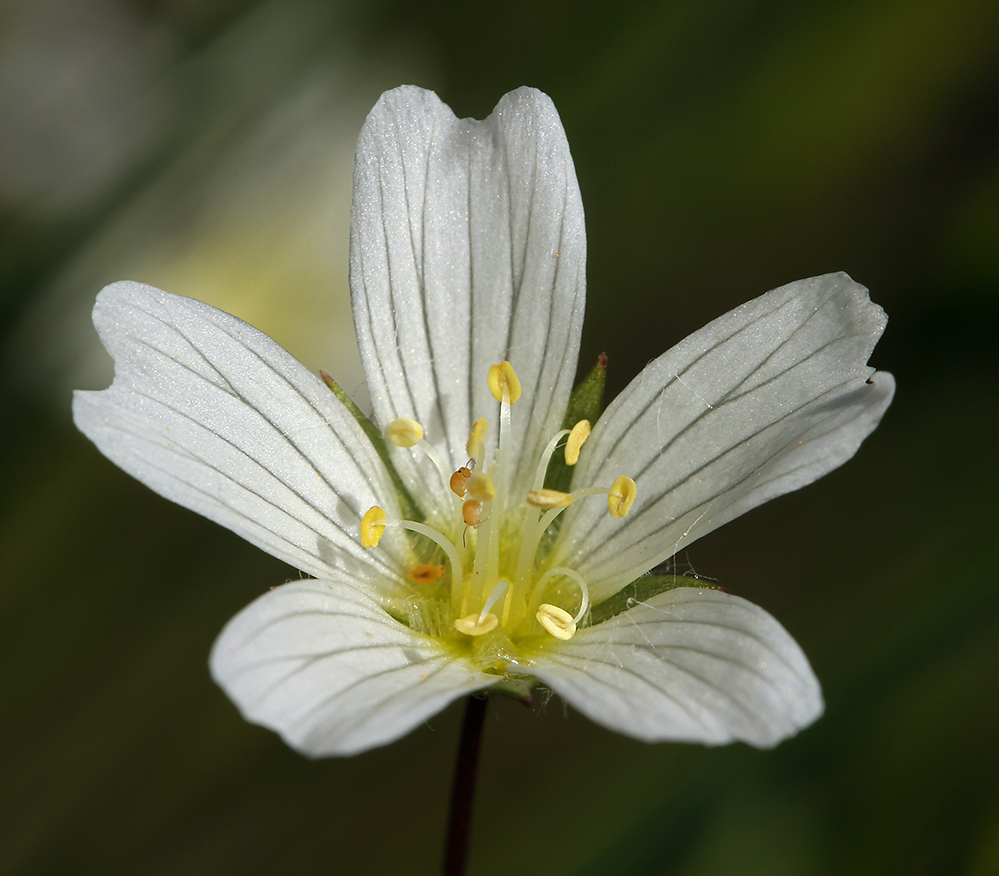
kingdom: Plantae
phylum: Tracheophyta
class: Magnoliopsida
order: Brassicales
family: Limnanthaceae
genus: Limnanthes
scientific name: Limnanthes alba
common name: Meadowfoam
